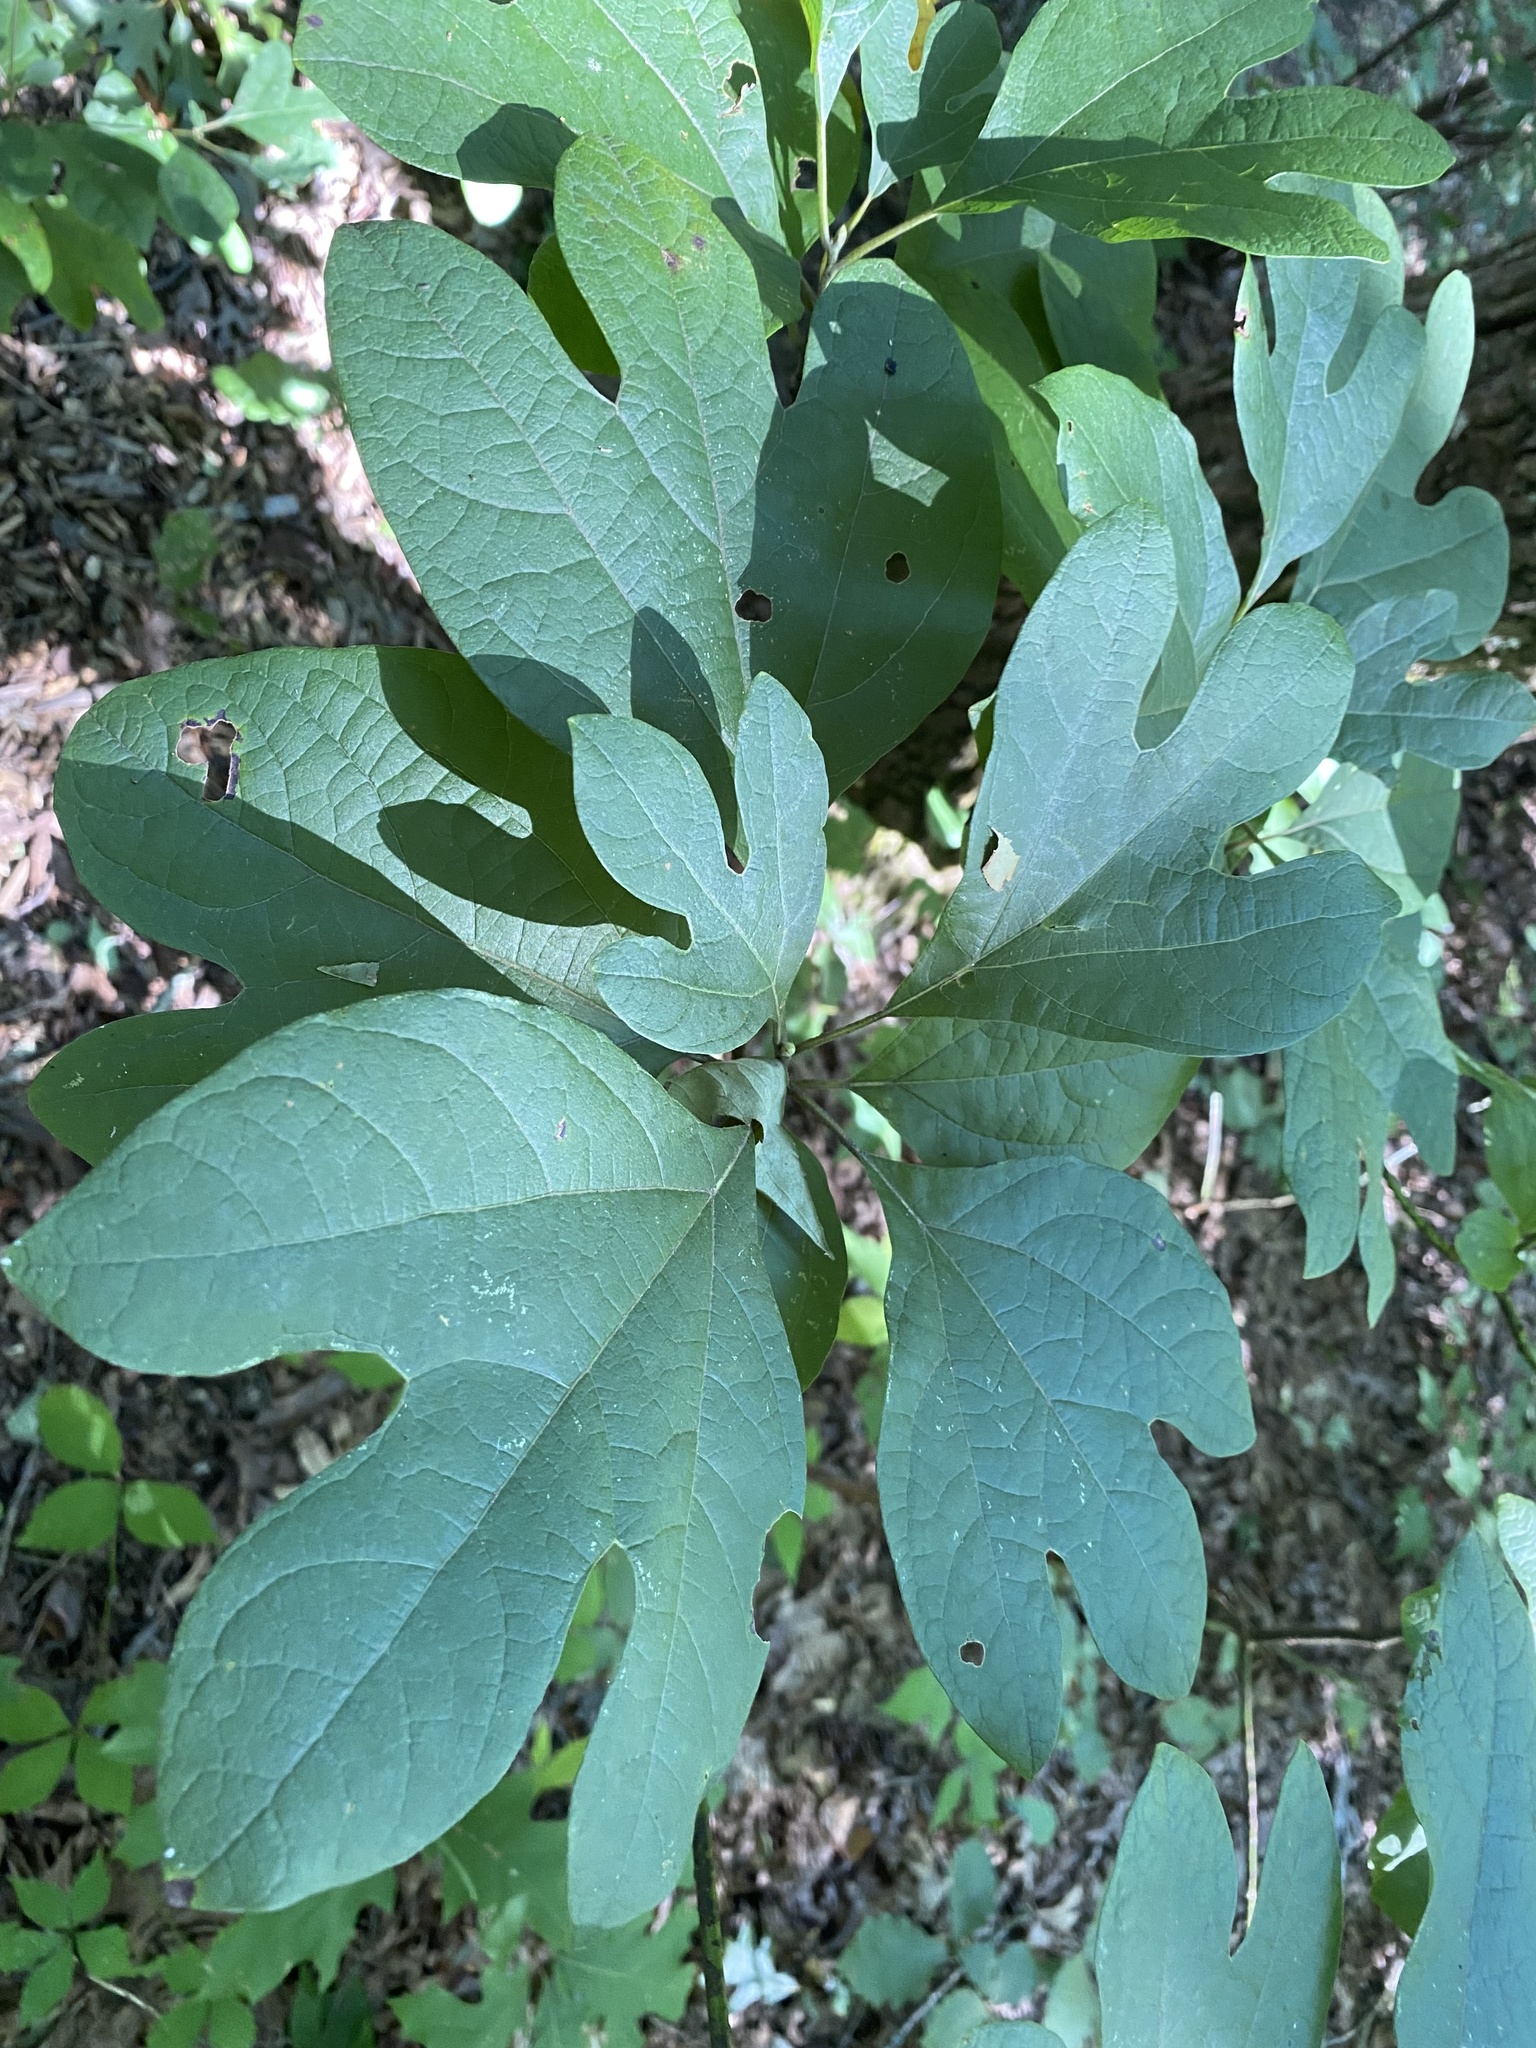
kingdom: Plantae
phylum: Tracheophyta
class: Magnoliopsida
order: Laurales
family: Lauraceae
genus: Sassafras
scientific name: Sassafras albidum
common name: Sassafras
